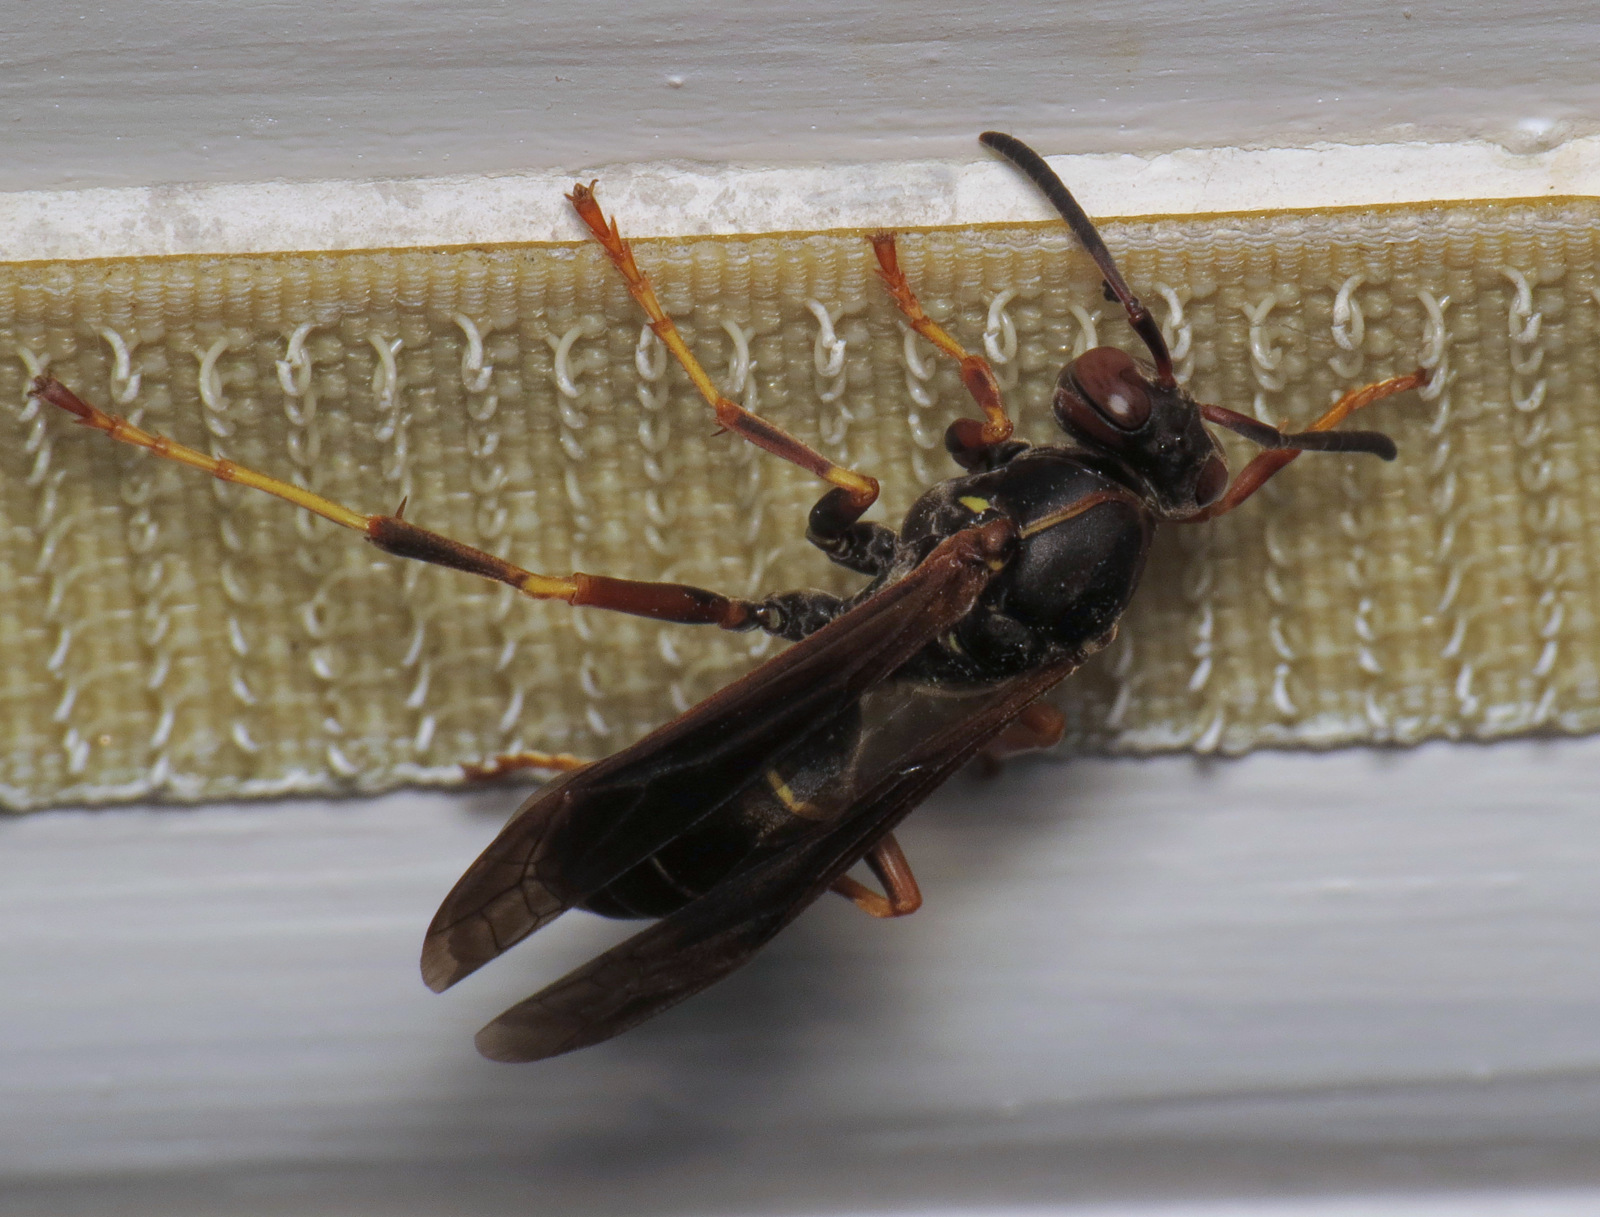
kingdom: Animalia
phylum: Arthropoda
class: Insecta
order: Hymenoptera
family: Eumenidae
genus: Polistes
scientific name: Polistes fuscatus
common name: Dark paper wasp
